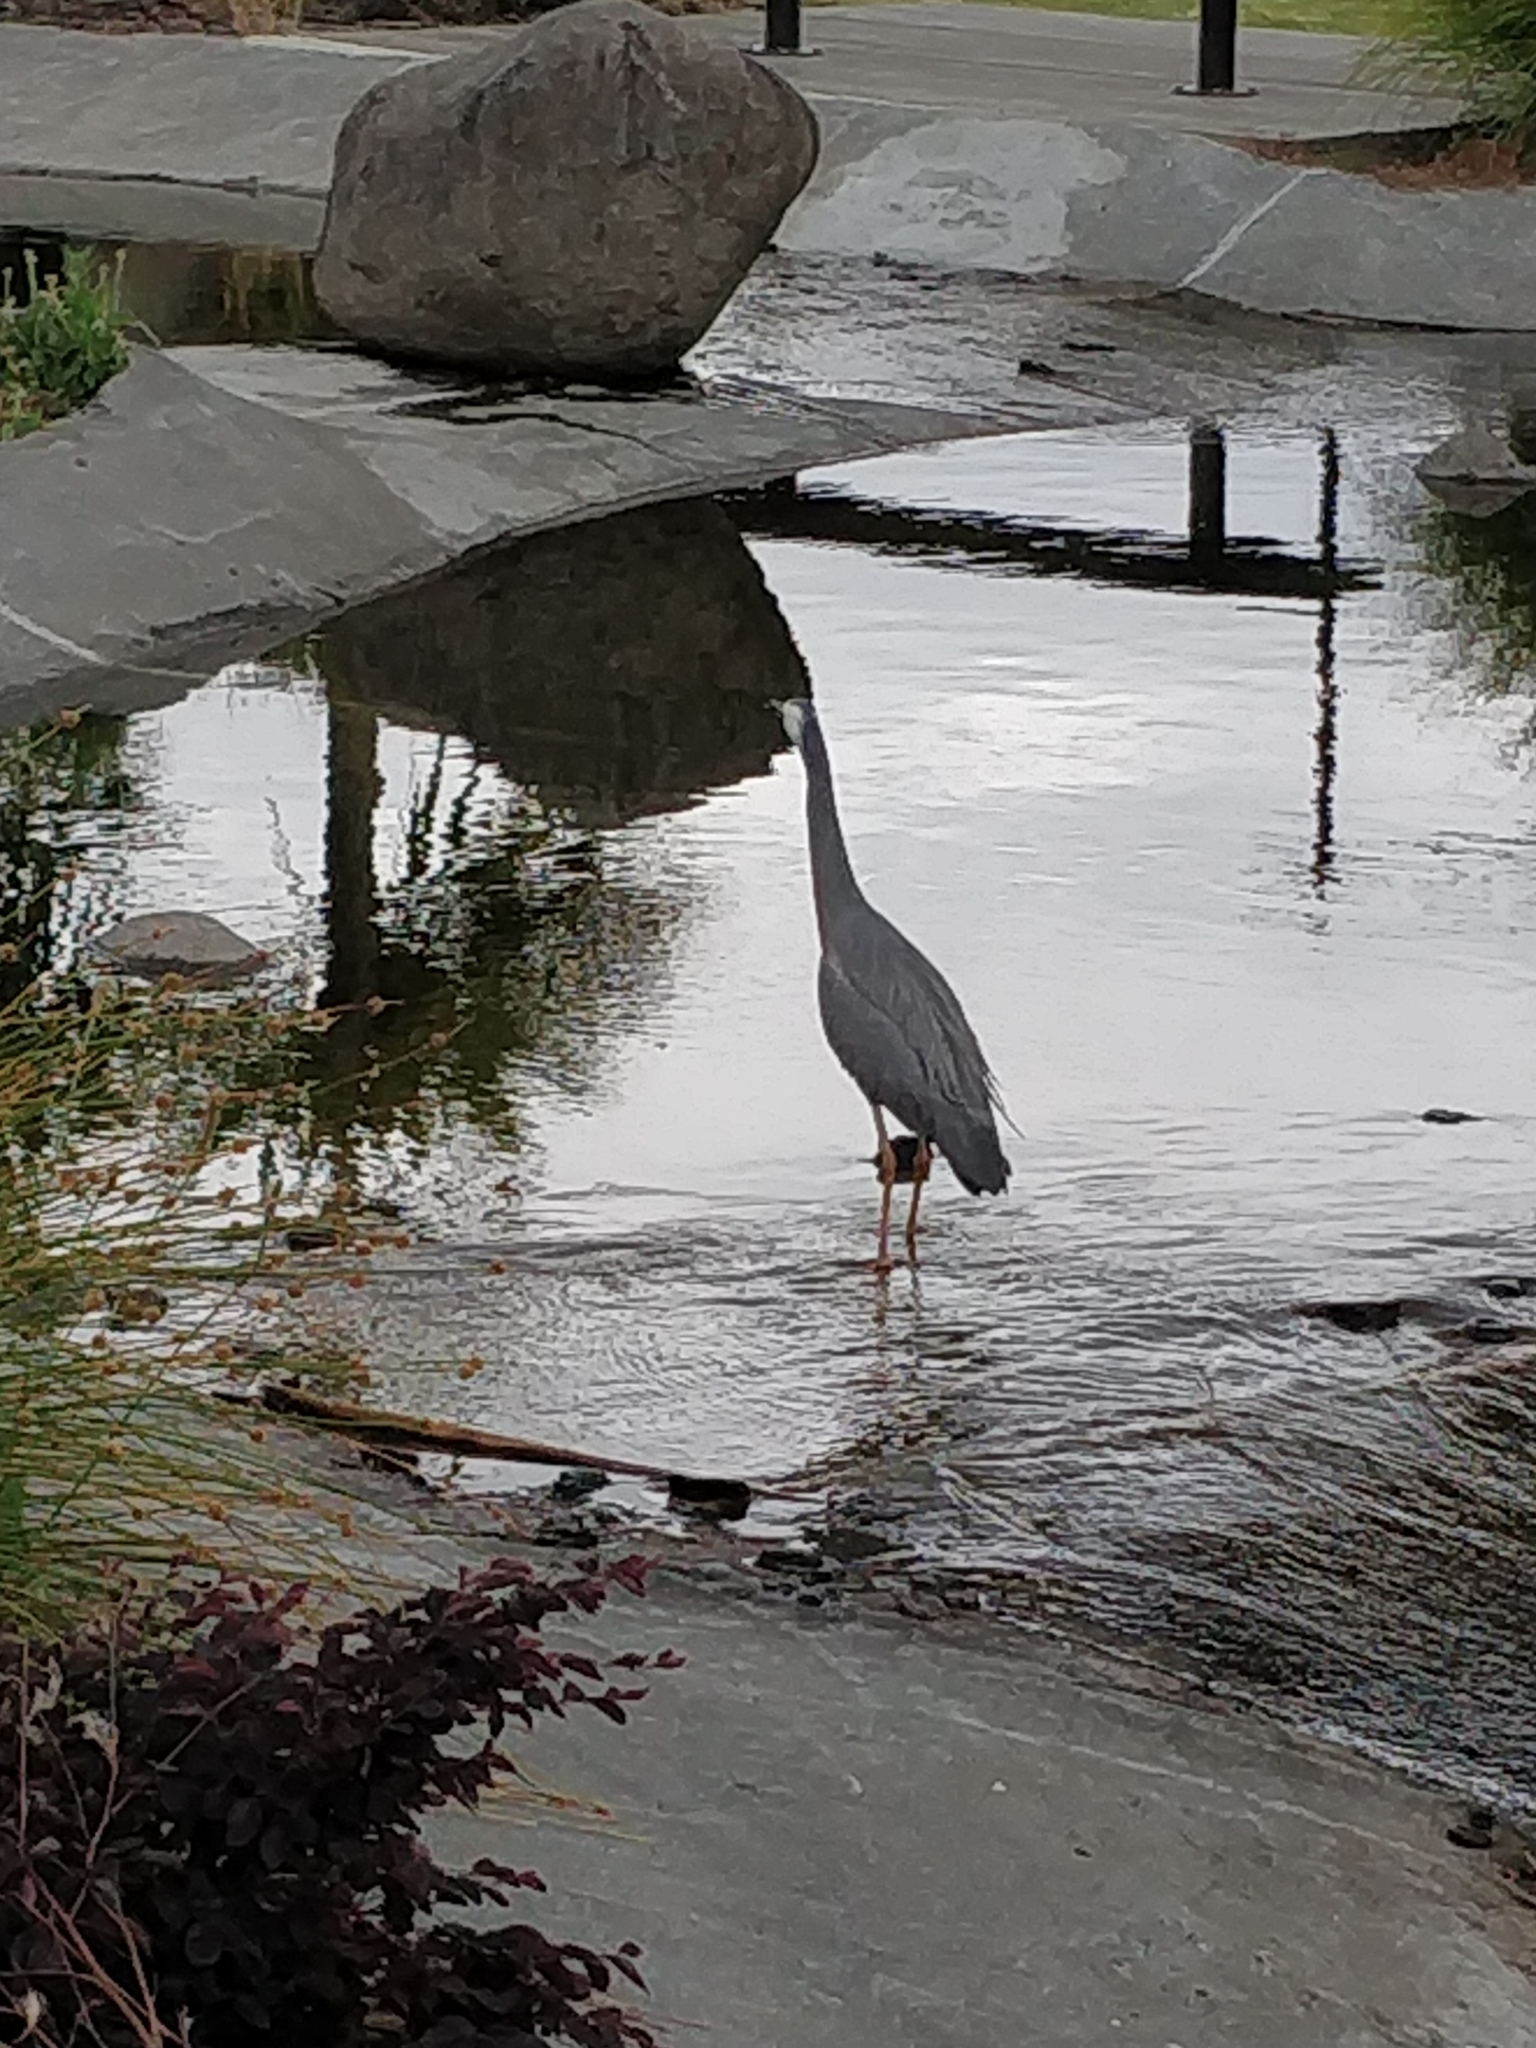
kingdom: Animalia
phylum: Chordata
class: Aves
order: Pelecaniformes
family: Ardeidae
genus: Egretta
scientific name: Egretta novaehollandiae
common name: White-faced heron
